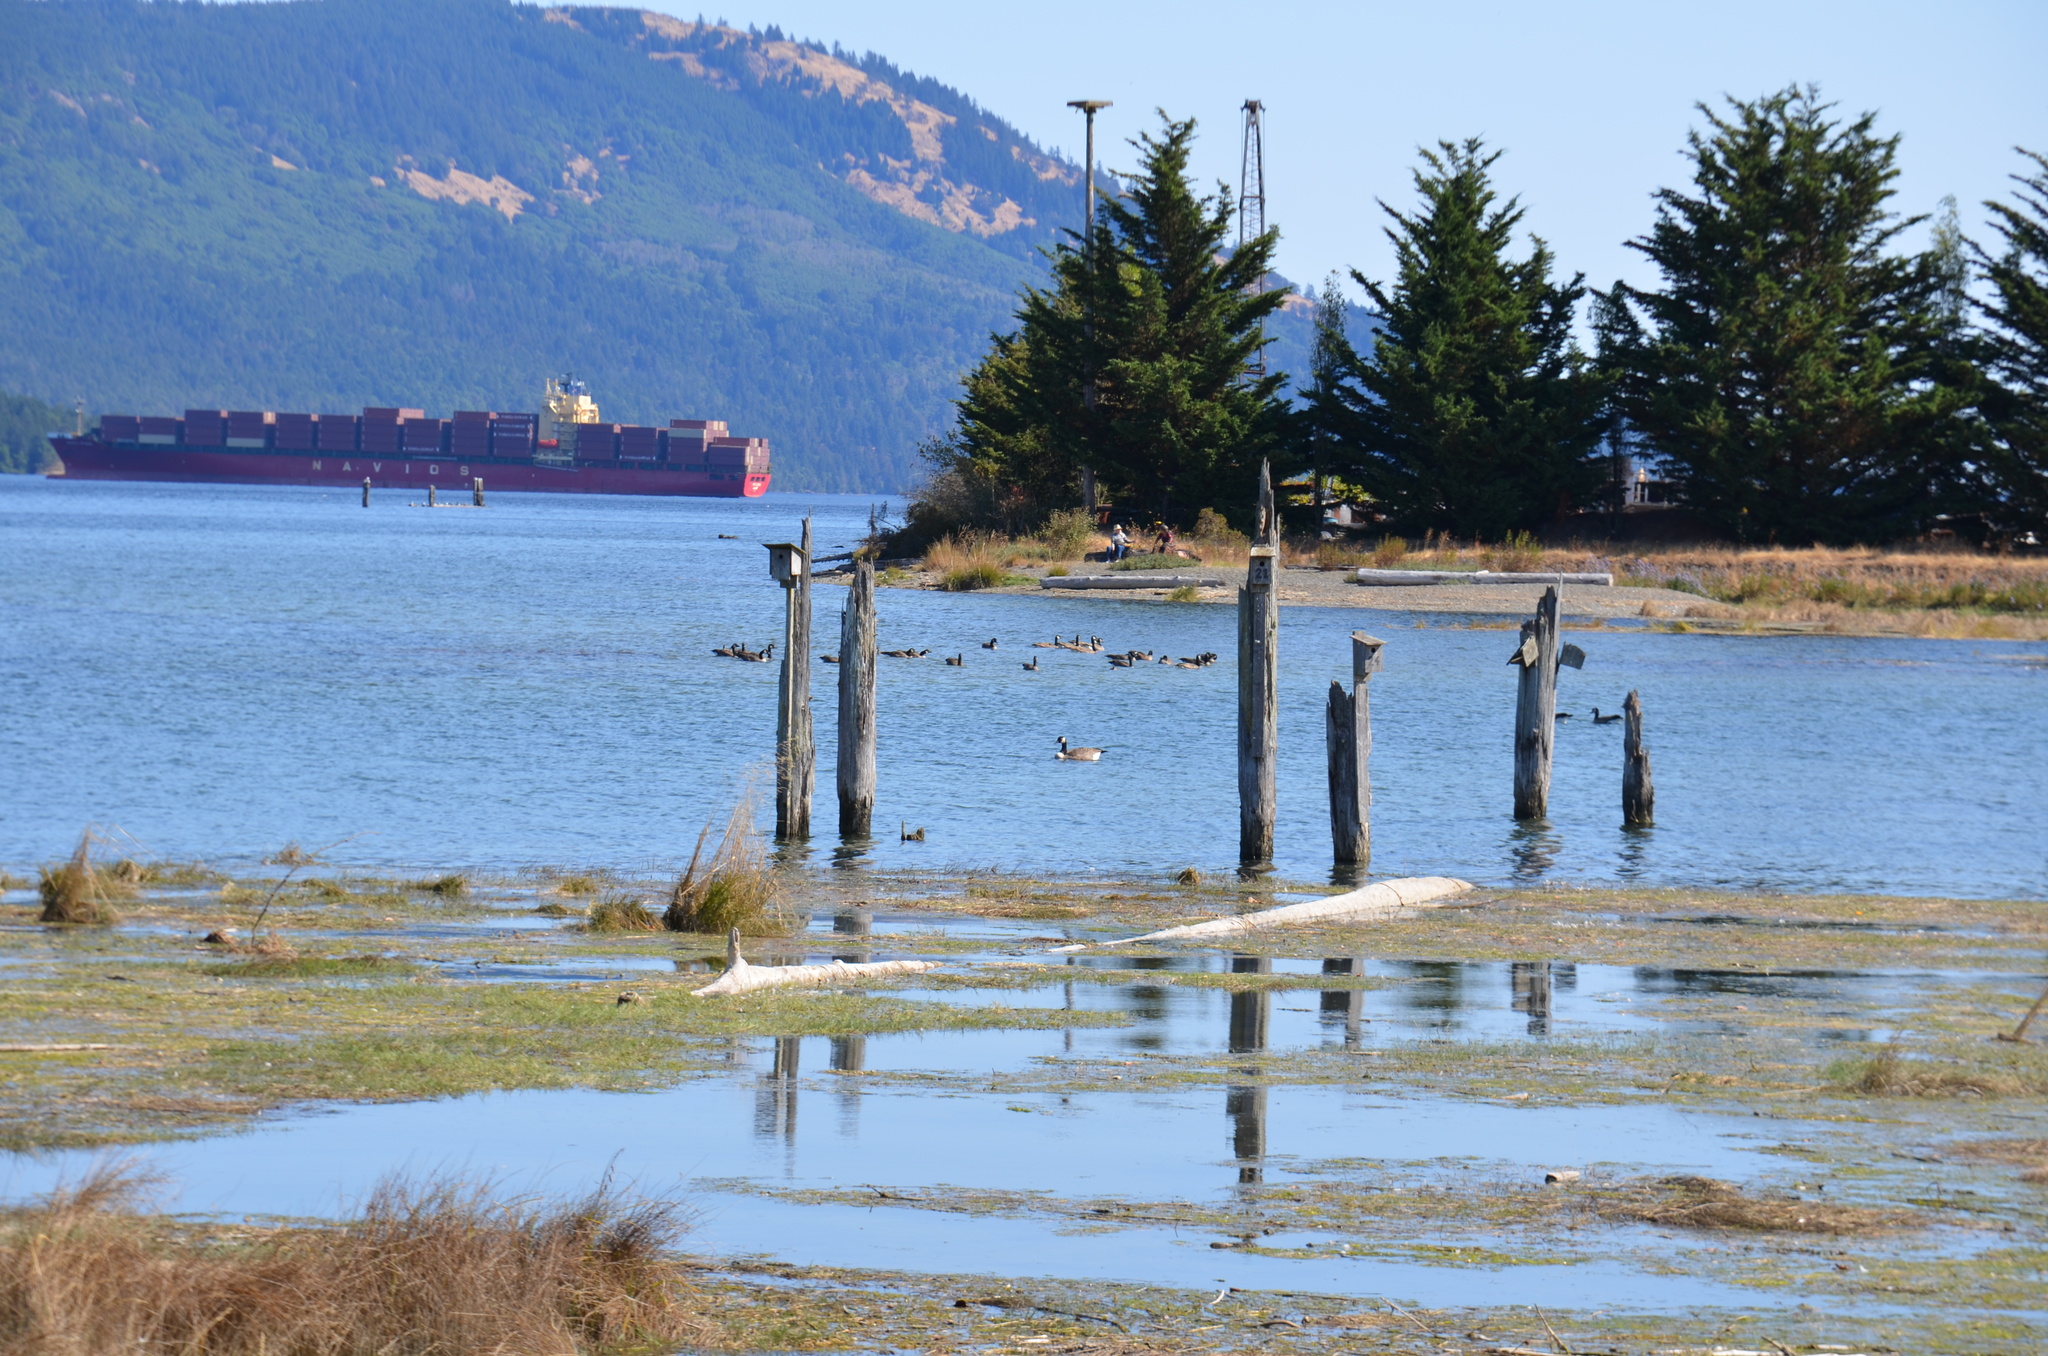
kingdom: Animalia
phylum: Chordata
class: Aves
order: Anseriformes
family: Anatidae
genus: Branta
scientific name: Branta canadensis
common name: Canada goose
